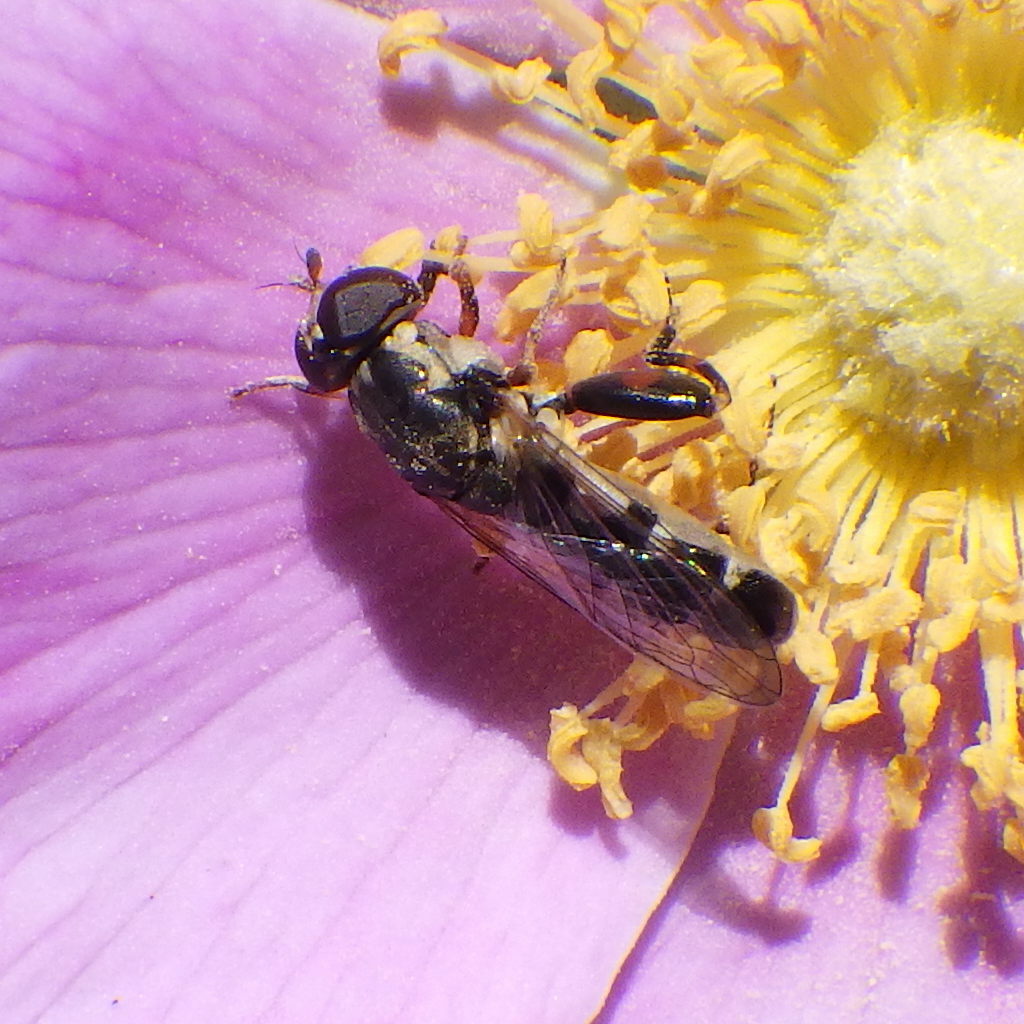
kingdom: Animalia
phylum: Arthropoda
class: Insecta
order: Diptera
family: Syrphidae
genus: Syritta
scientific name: Syritta pipiens
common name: Hover fly
